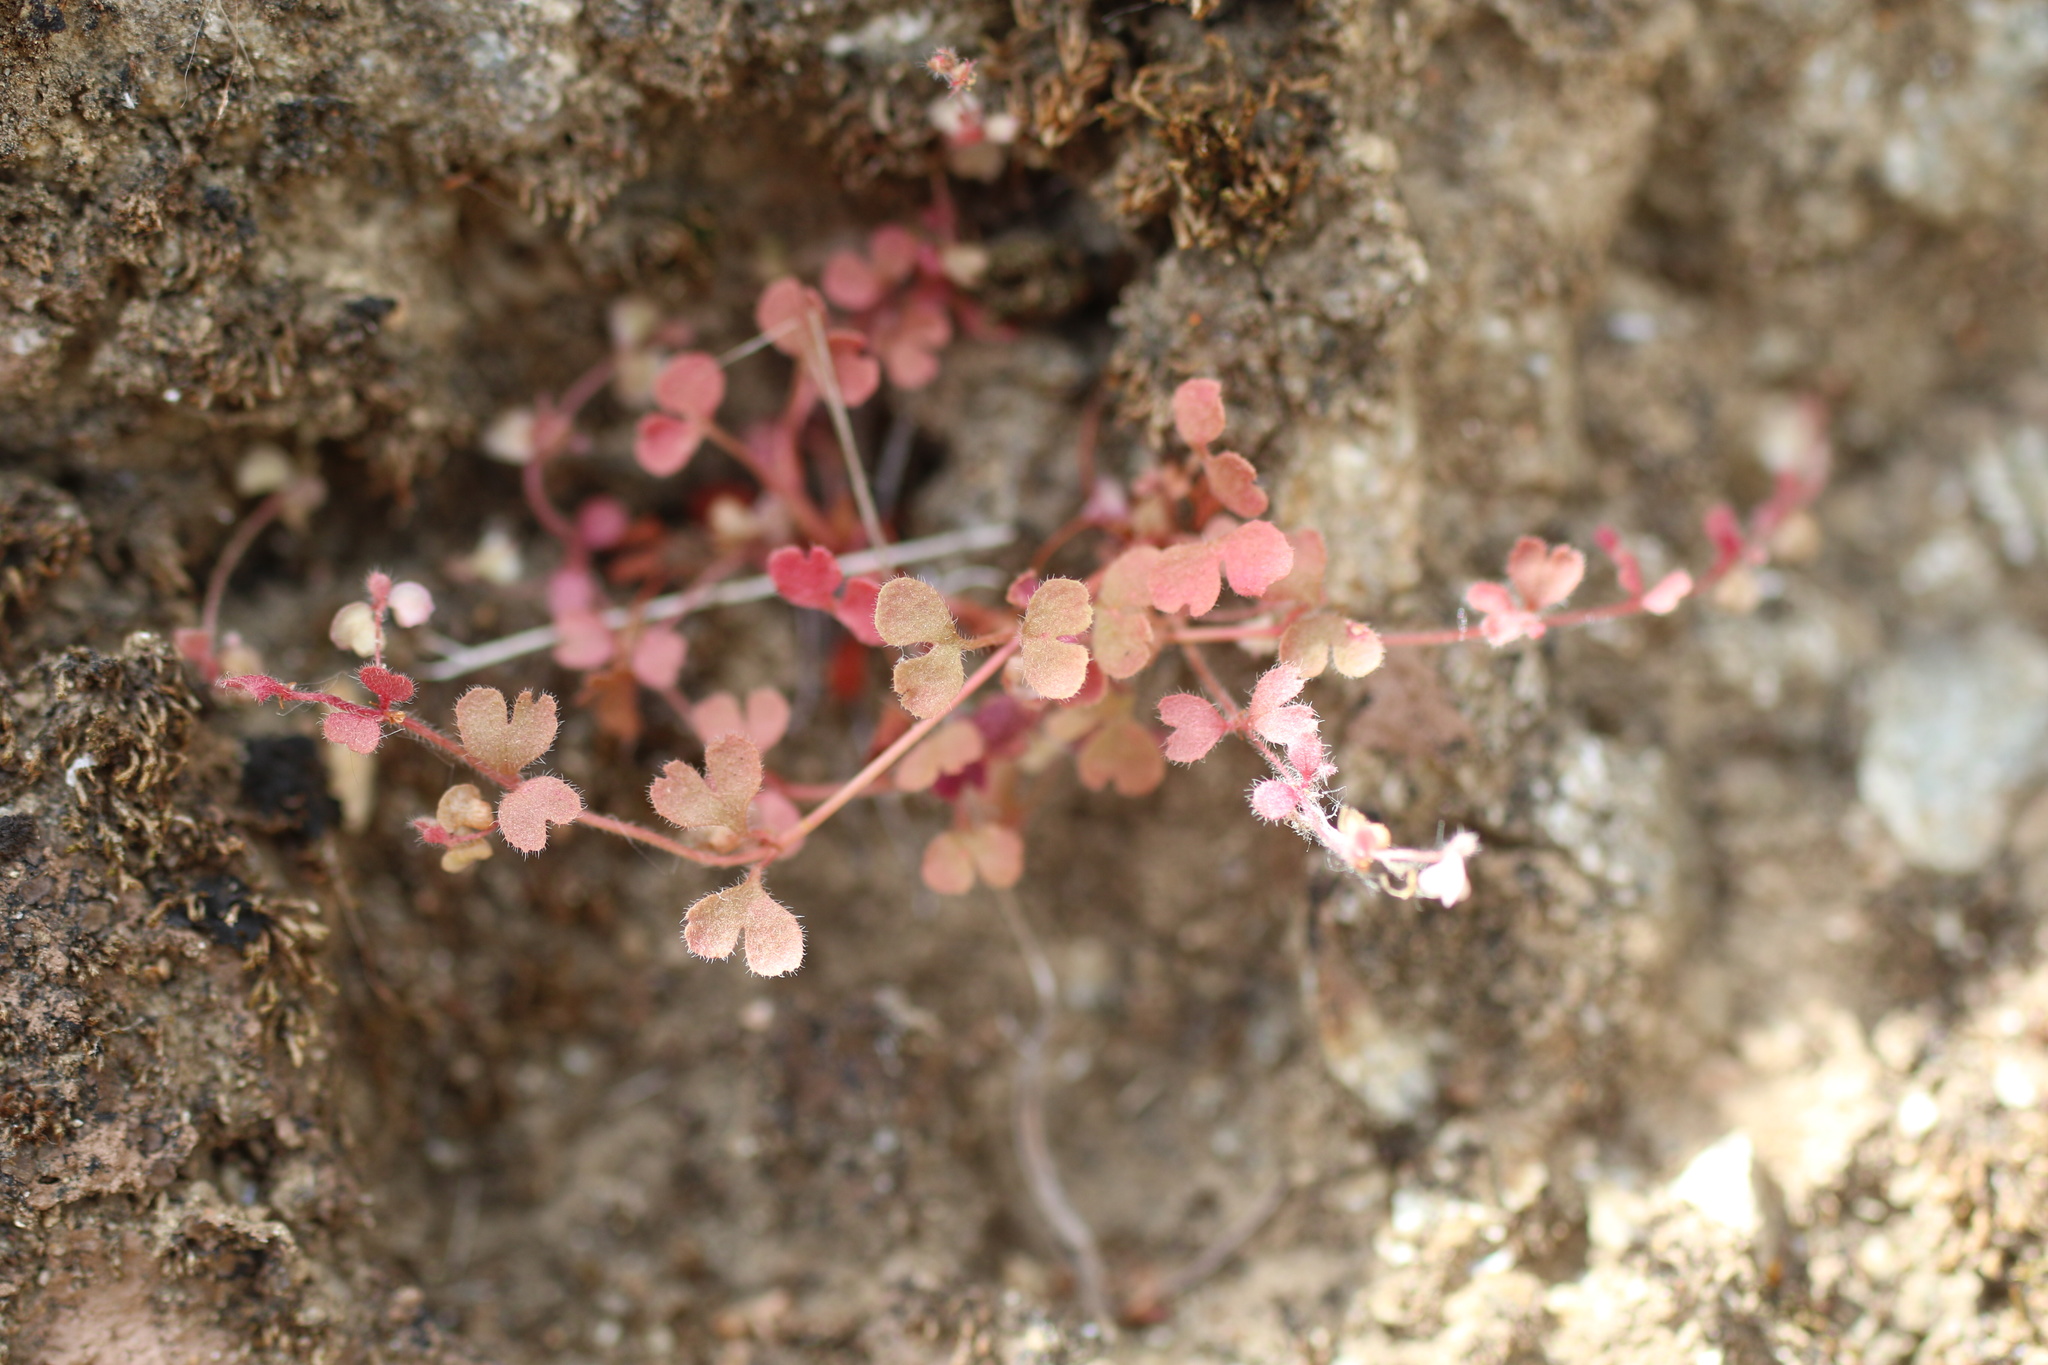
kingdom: Plantae
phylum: Tracheophyta
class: Magnoliopsida
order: Caryophyllales
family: Polygonaceae
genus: Pterostegia
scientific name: Pterostegia drymarioides
